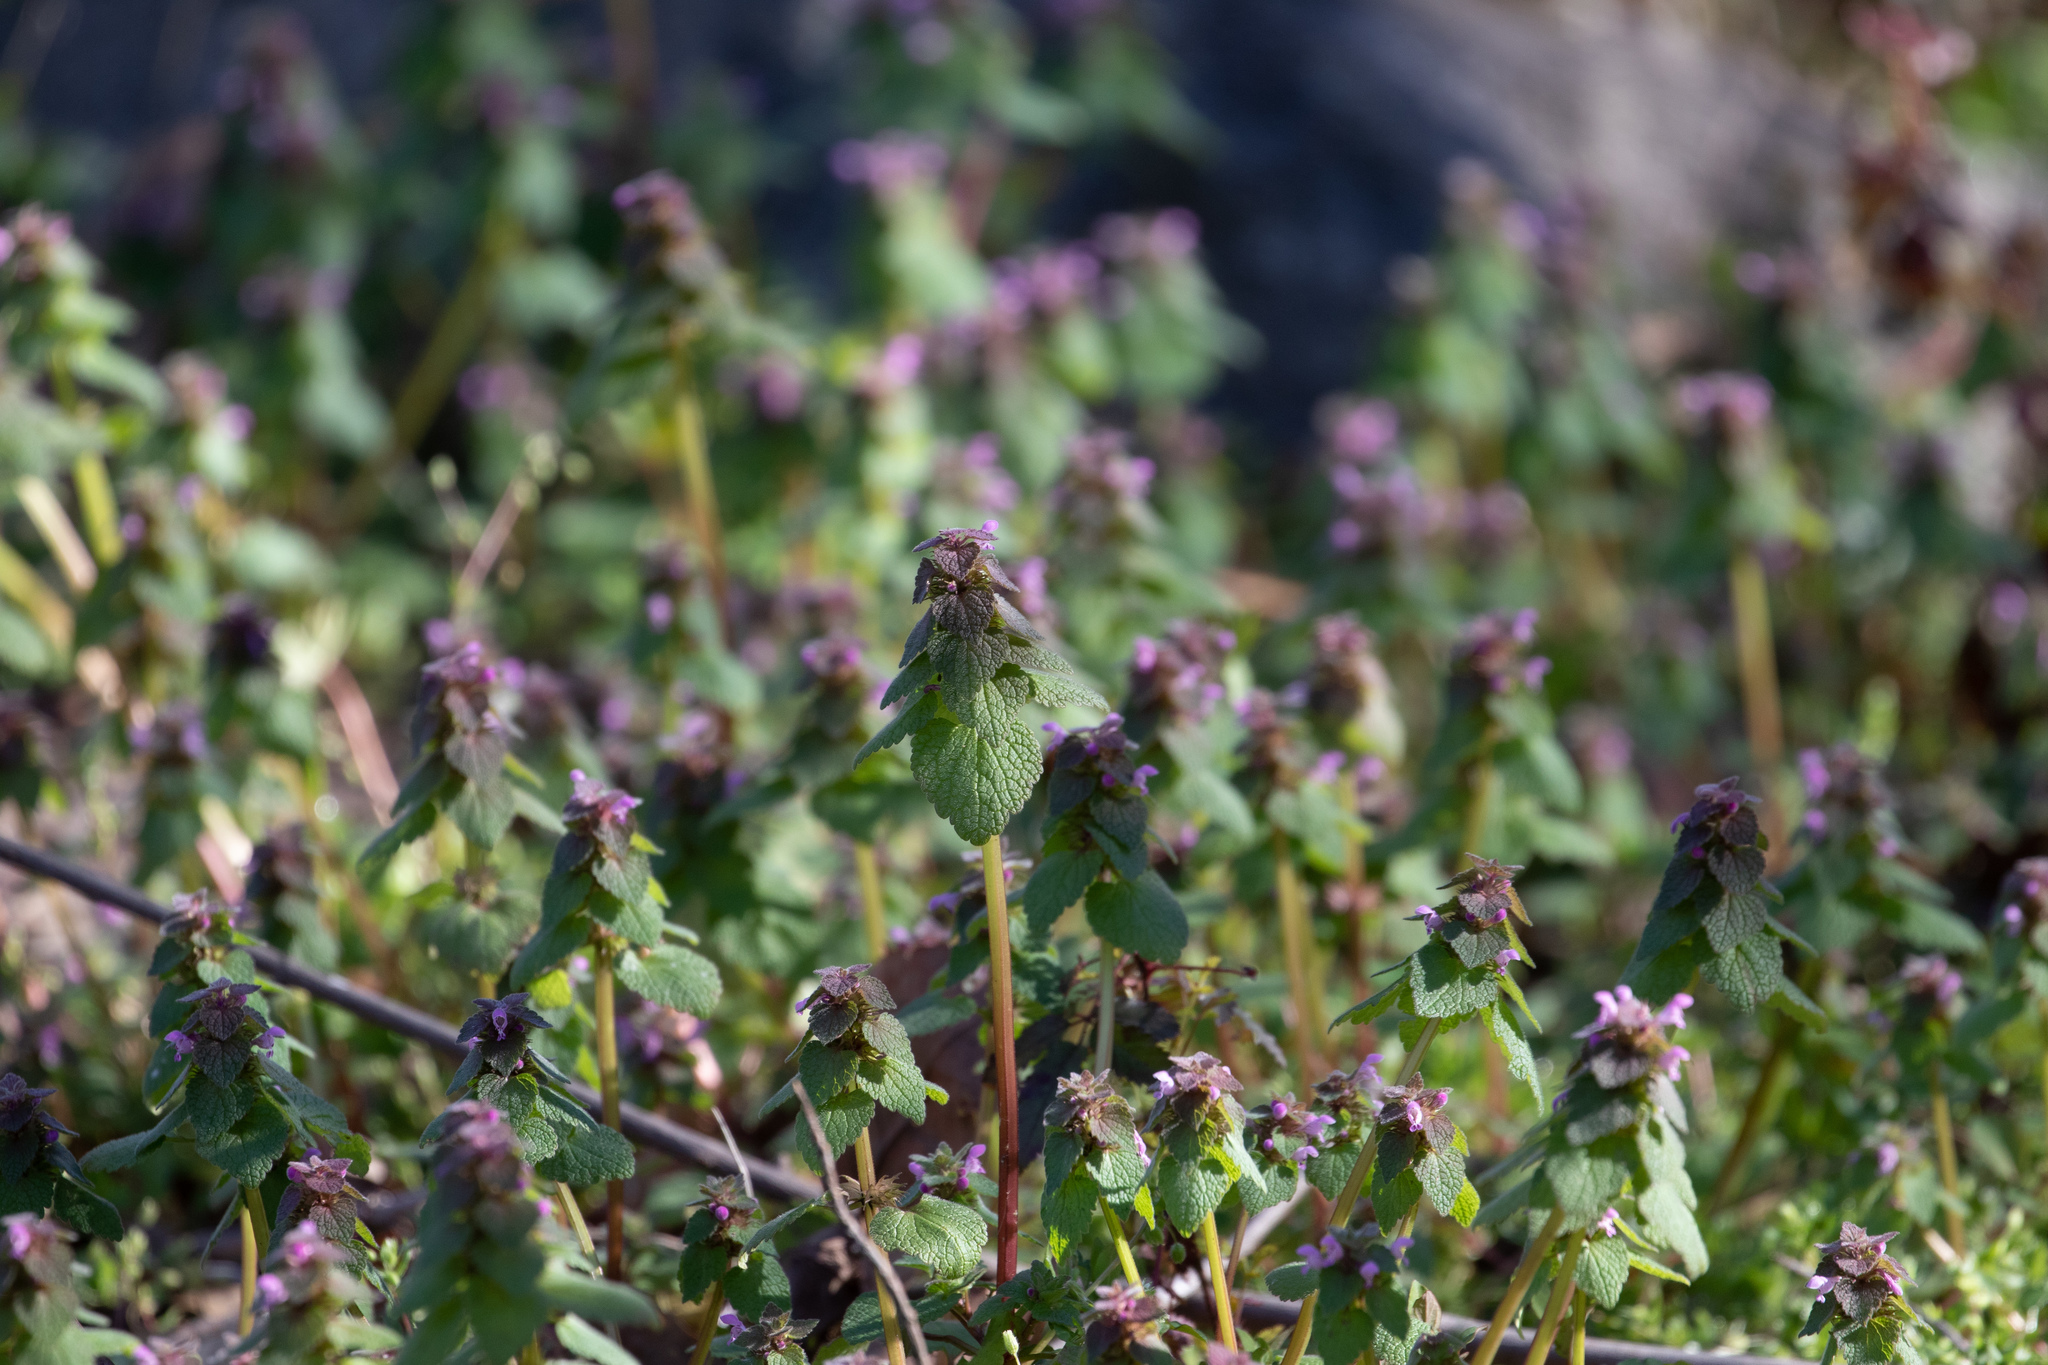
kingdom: Plantae
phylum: Tracheophyta
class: Magnoliopsida
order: Lamiales
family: Lamiaceae
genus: Lamium
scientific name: Lamium purpureum
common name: Red dead-nettle
